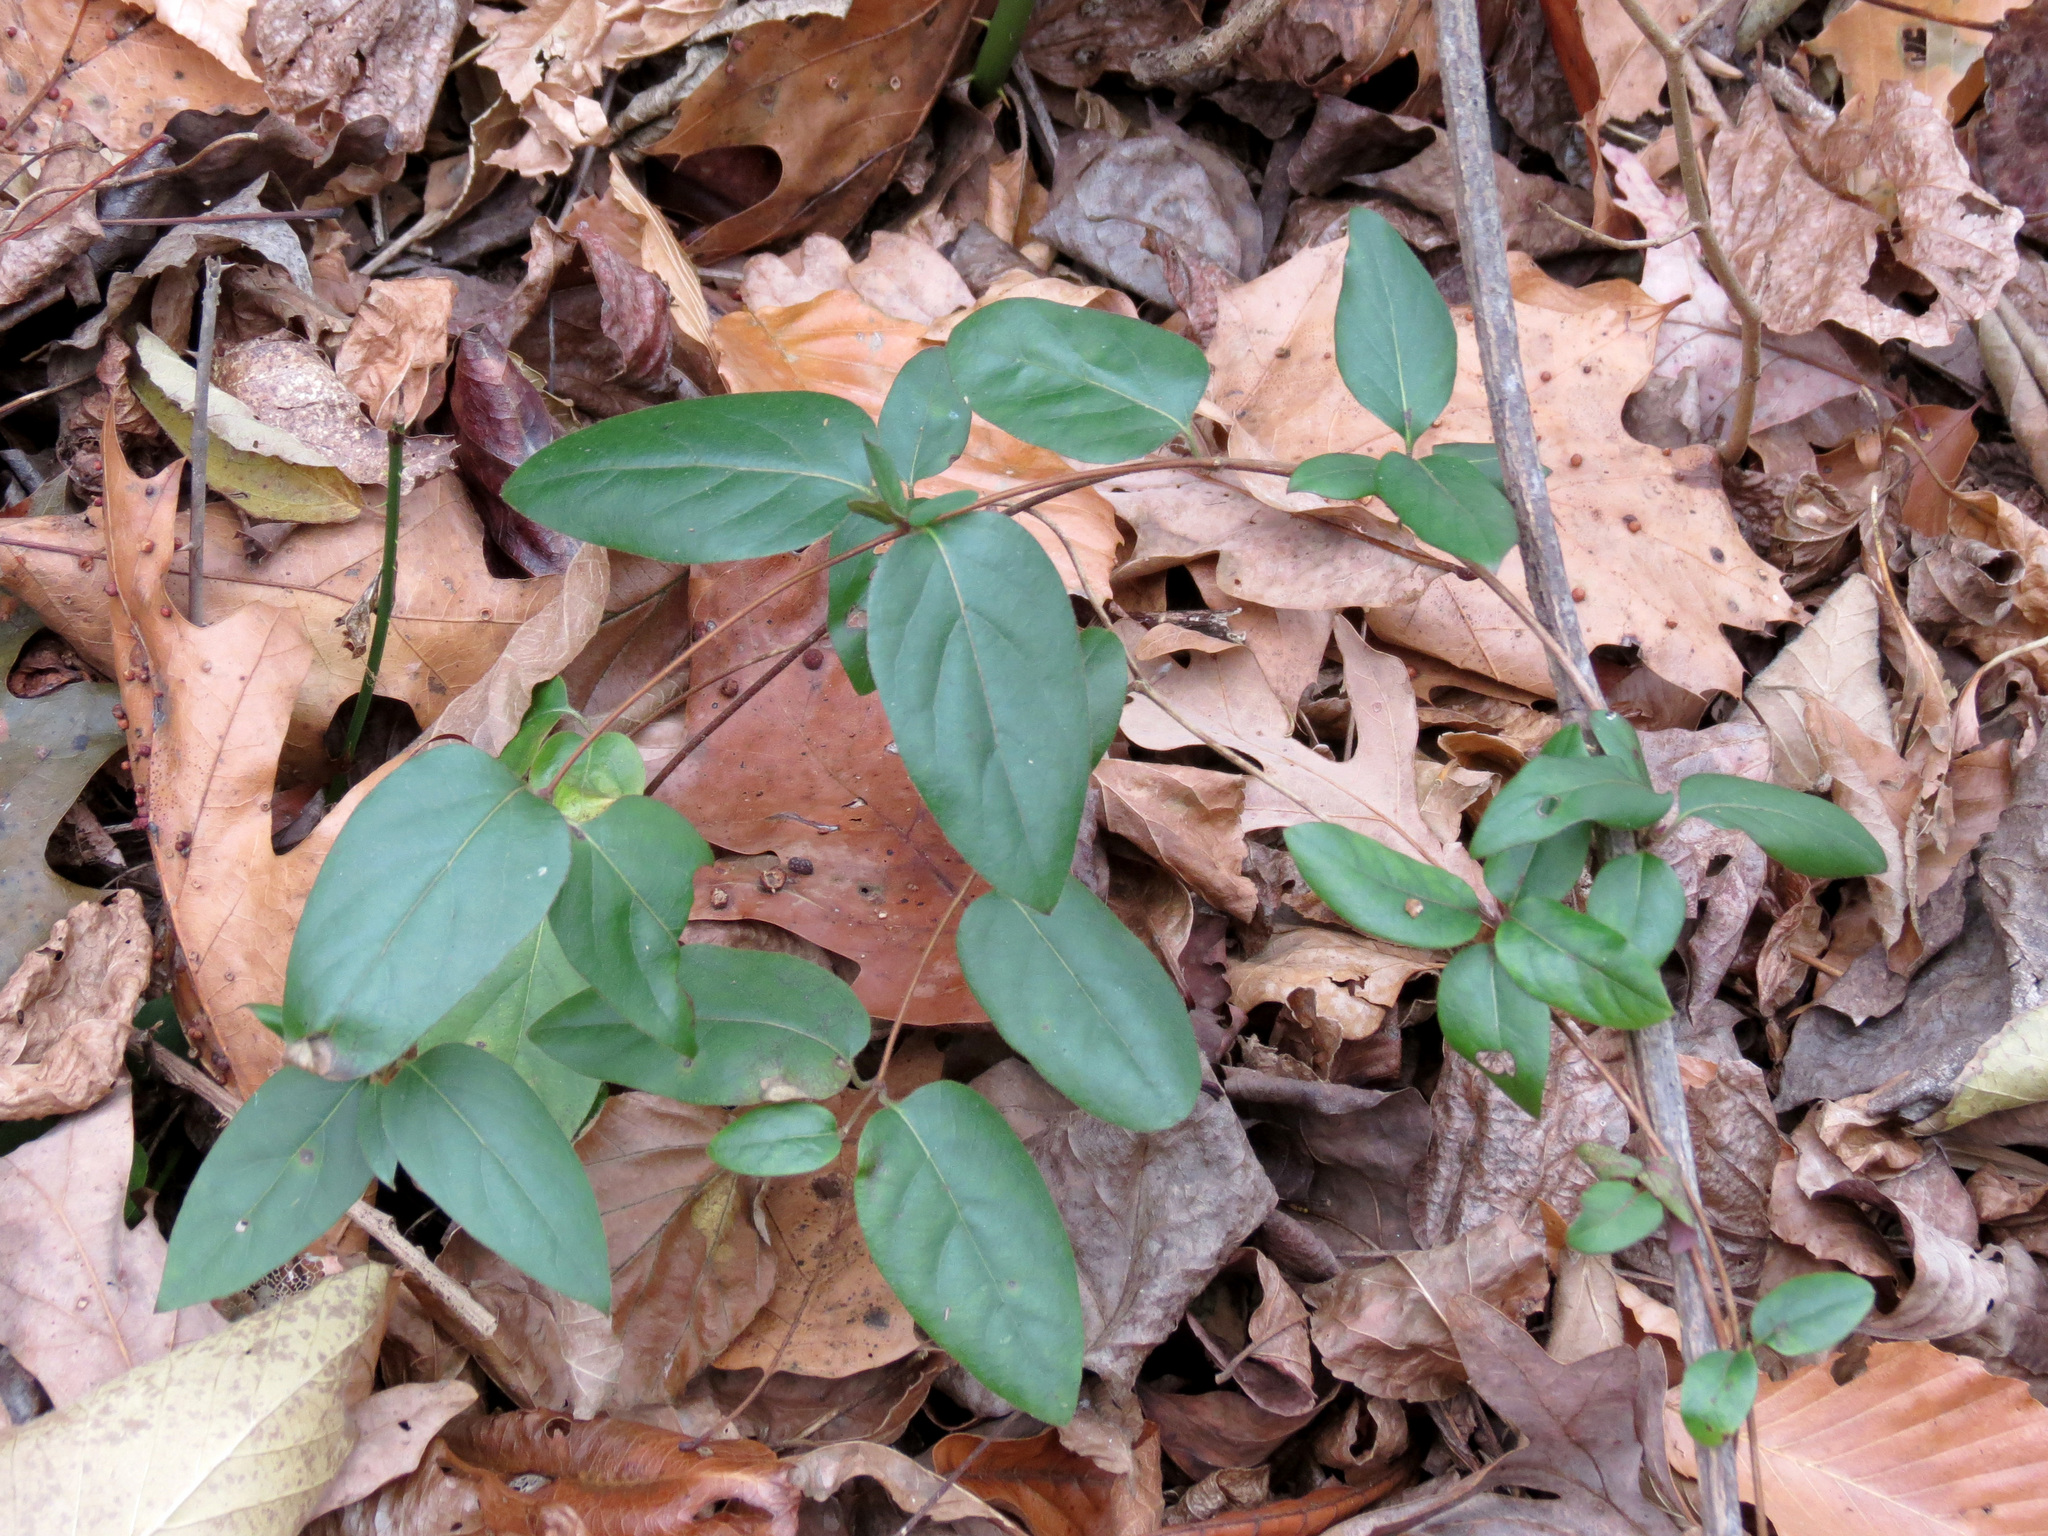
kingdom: Plantae
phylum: Tracheophyta
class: Magnoliopsida
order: Dipsacales
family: Caprifoliaceae
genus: Lonicera
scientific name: Lonicera japonica
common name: Japanese honeysuckle
